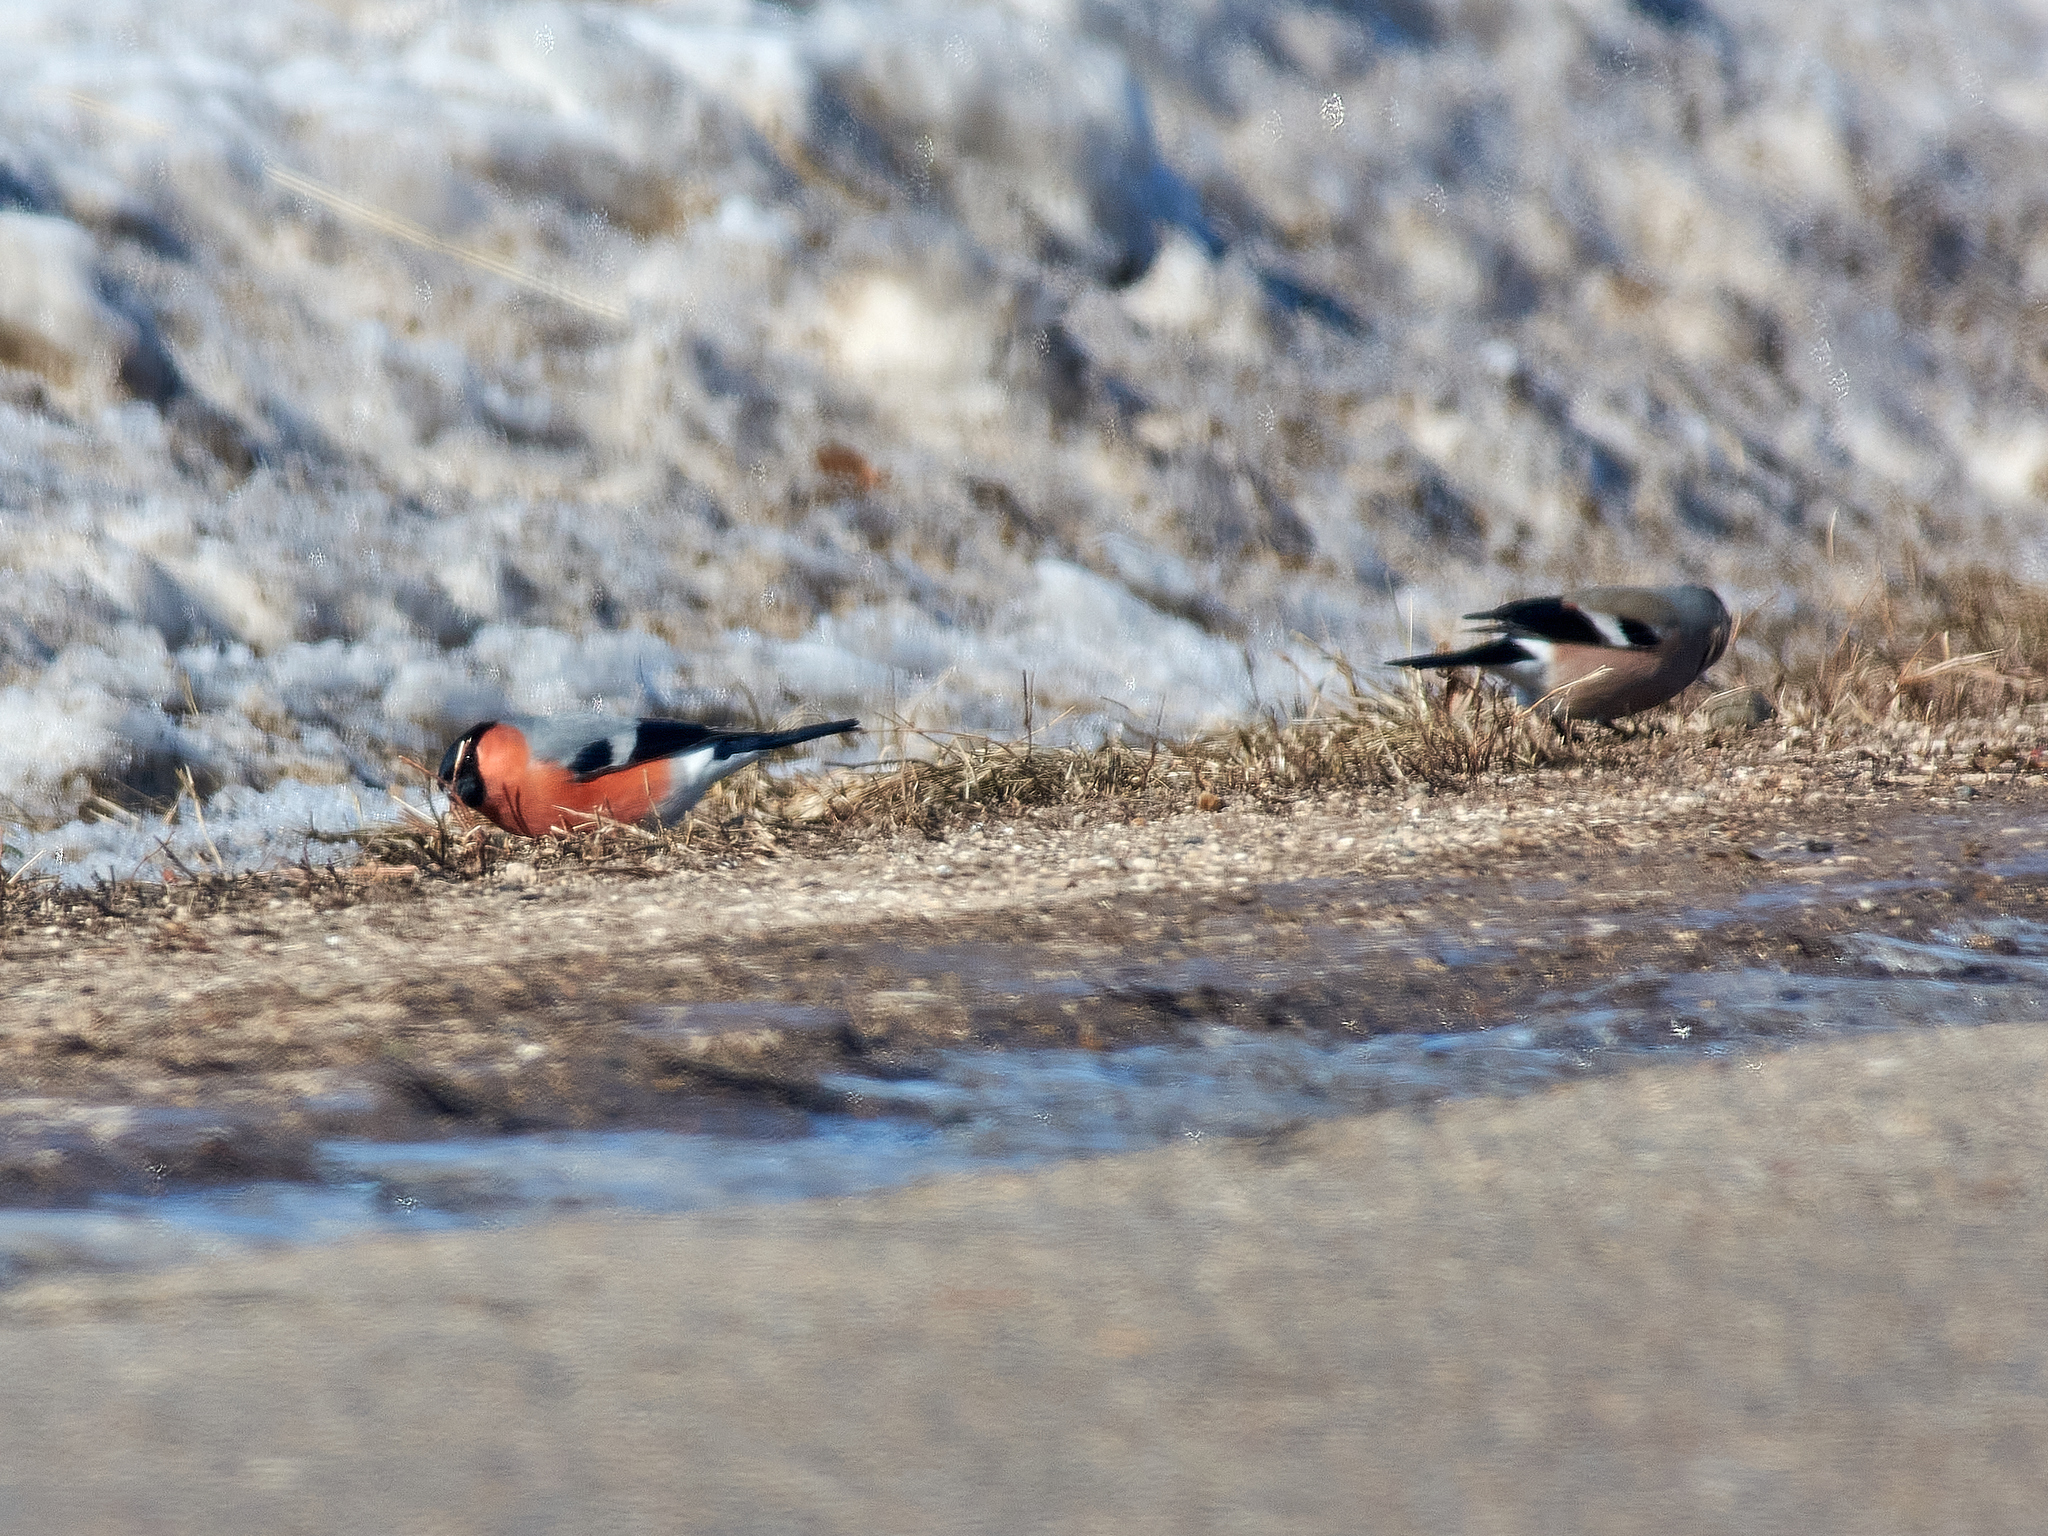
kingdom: Animalia
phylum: Chordata
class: Aves
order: Passeriformes
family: Fringillidae
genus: Pyrrhula
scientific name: Pyrrhula pyrrhula
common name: Eurasian bullfinch
